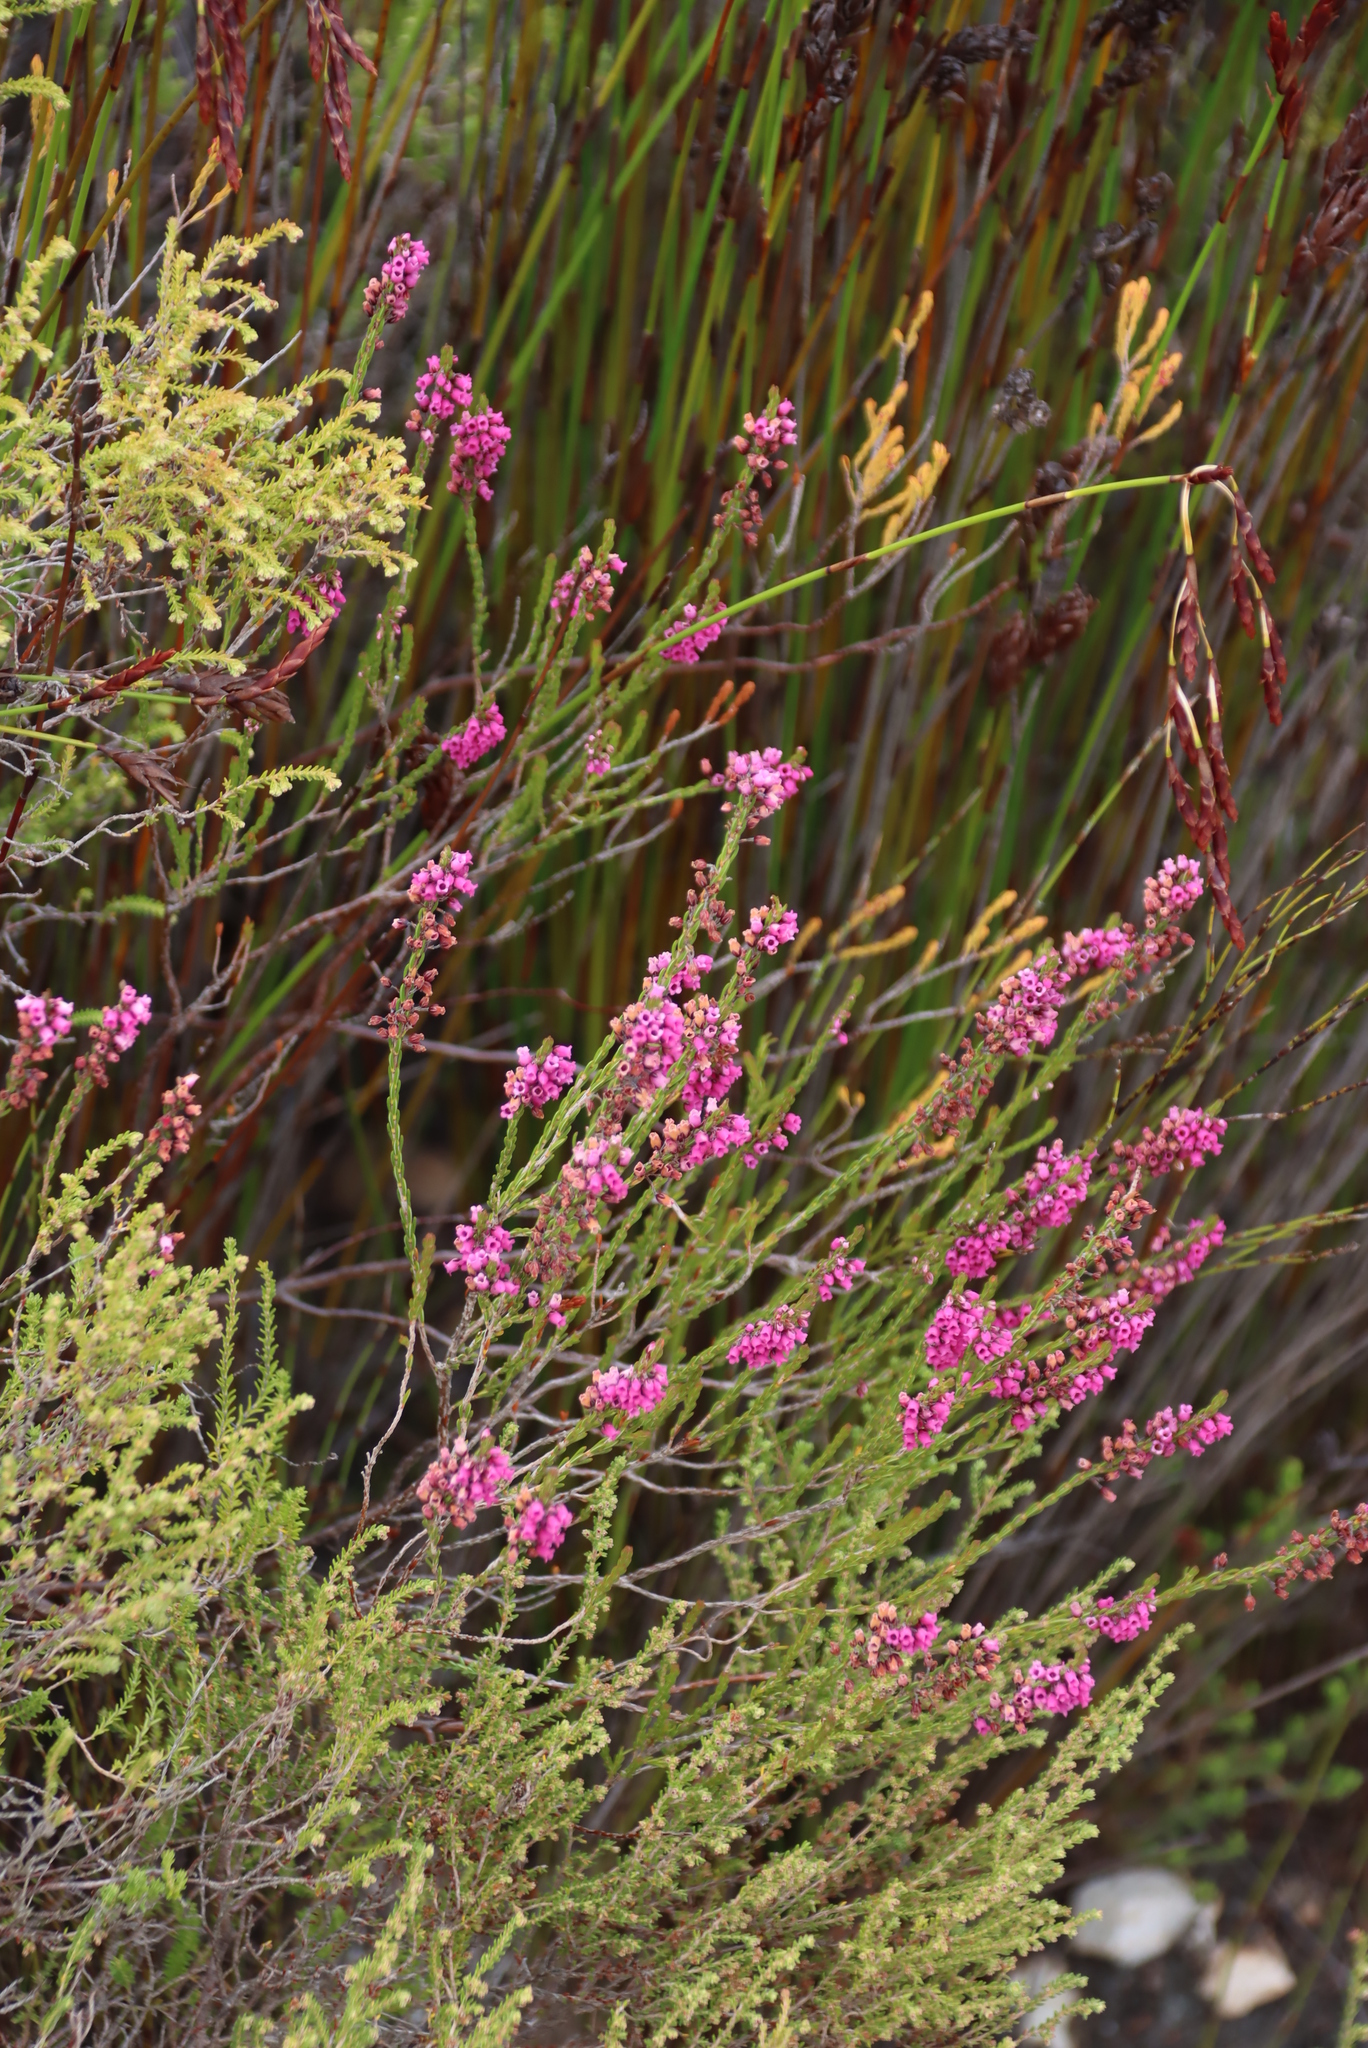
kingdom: Plantae
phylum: Tracheophyta
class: Magnoliopsida
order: Ericales
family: Ericaceae
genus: Erica
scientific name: Erica pulchella
